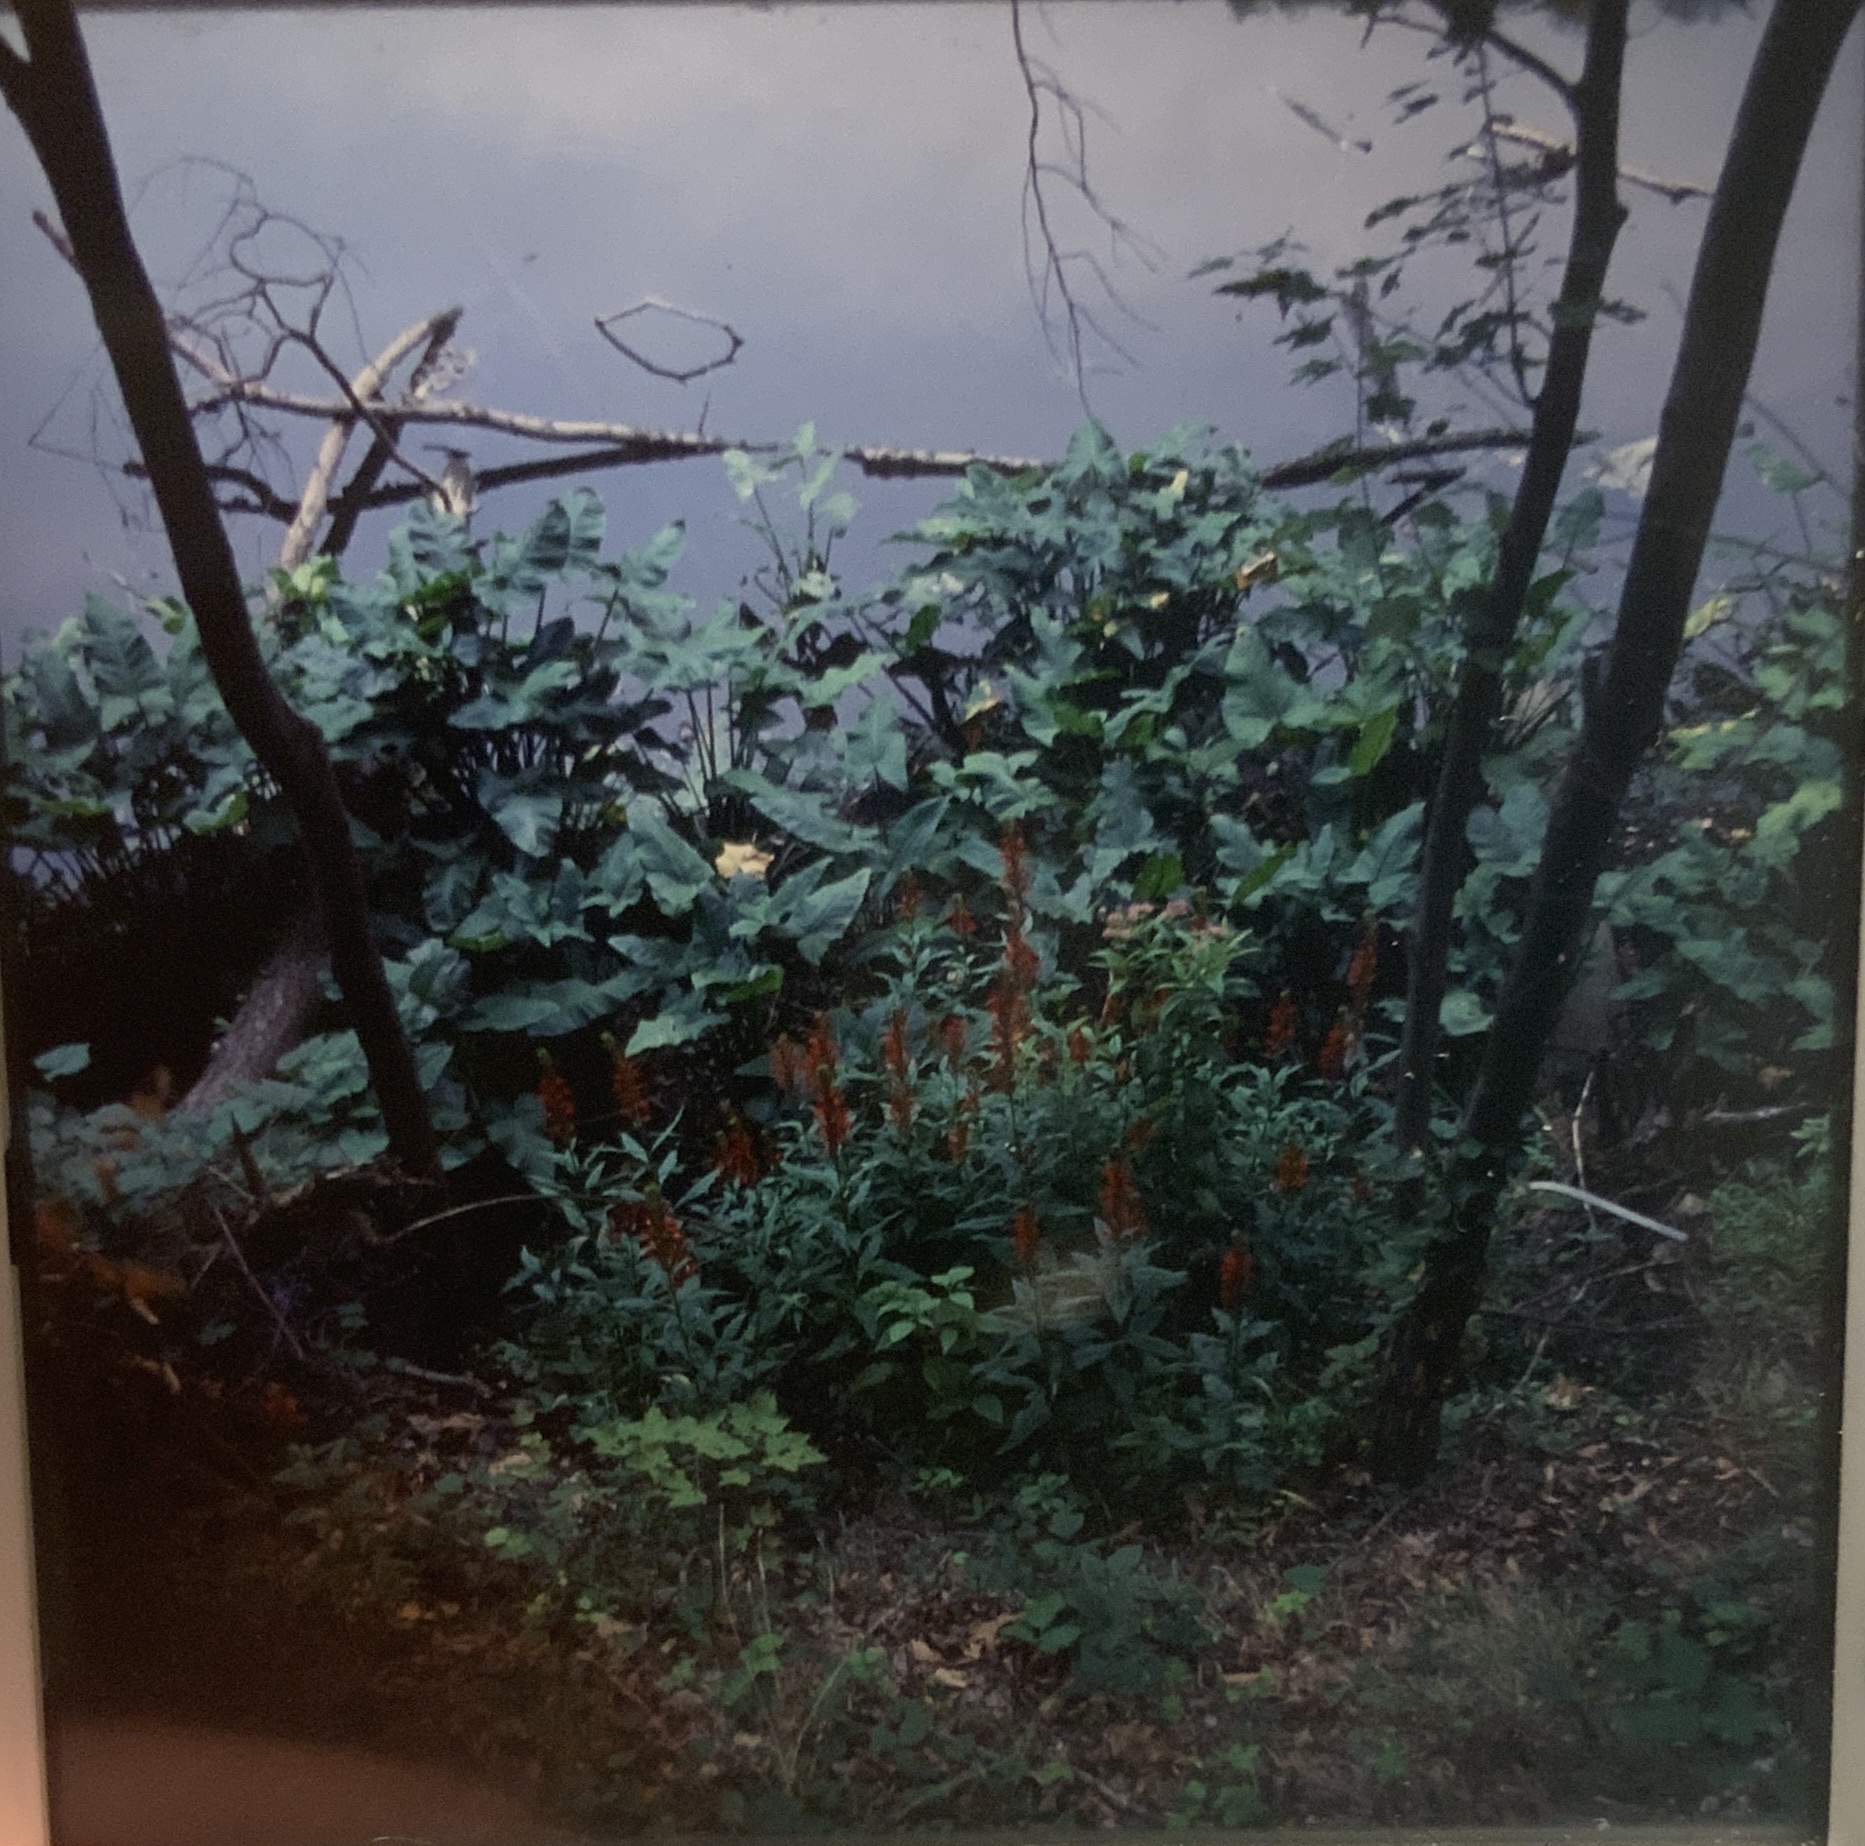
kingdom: Plantae
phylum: Tracheophyta
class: Magnoliopsida
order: Asterales
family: Campanulaceae
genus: Lobelia
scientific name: Lobelia cardinalis
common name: Cardinal flower
